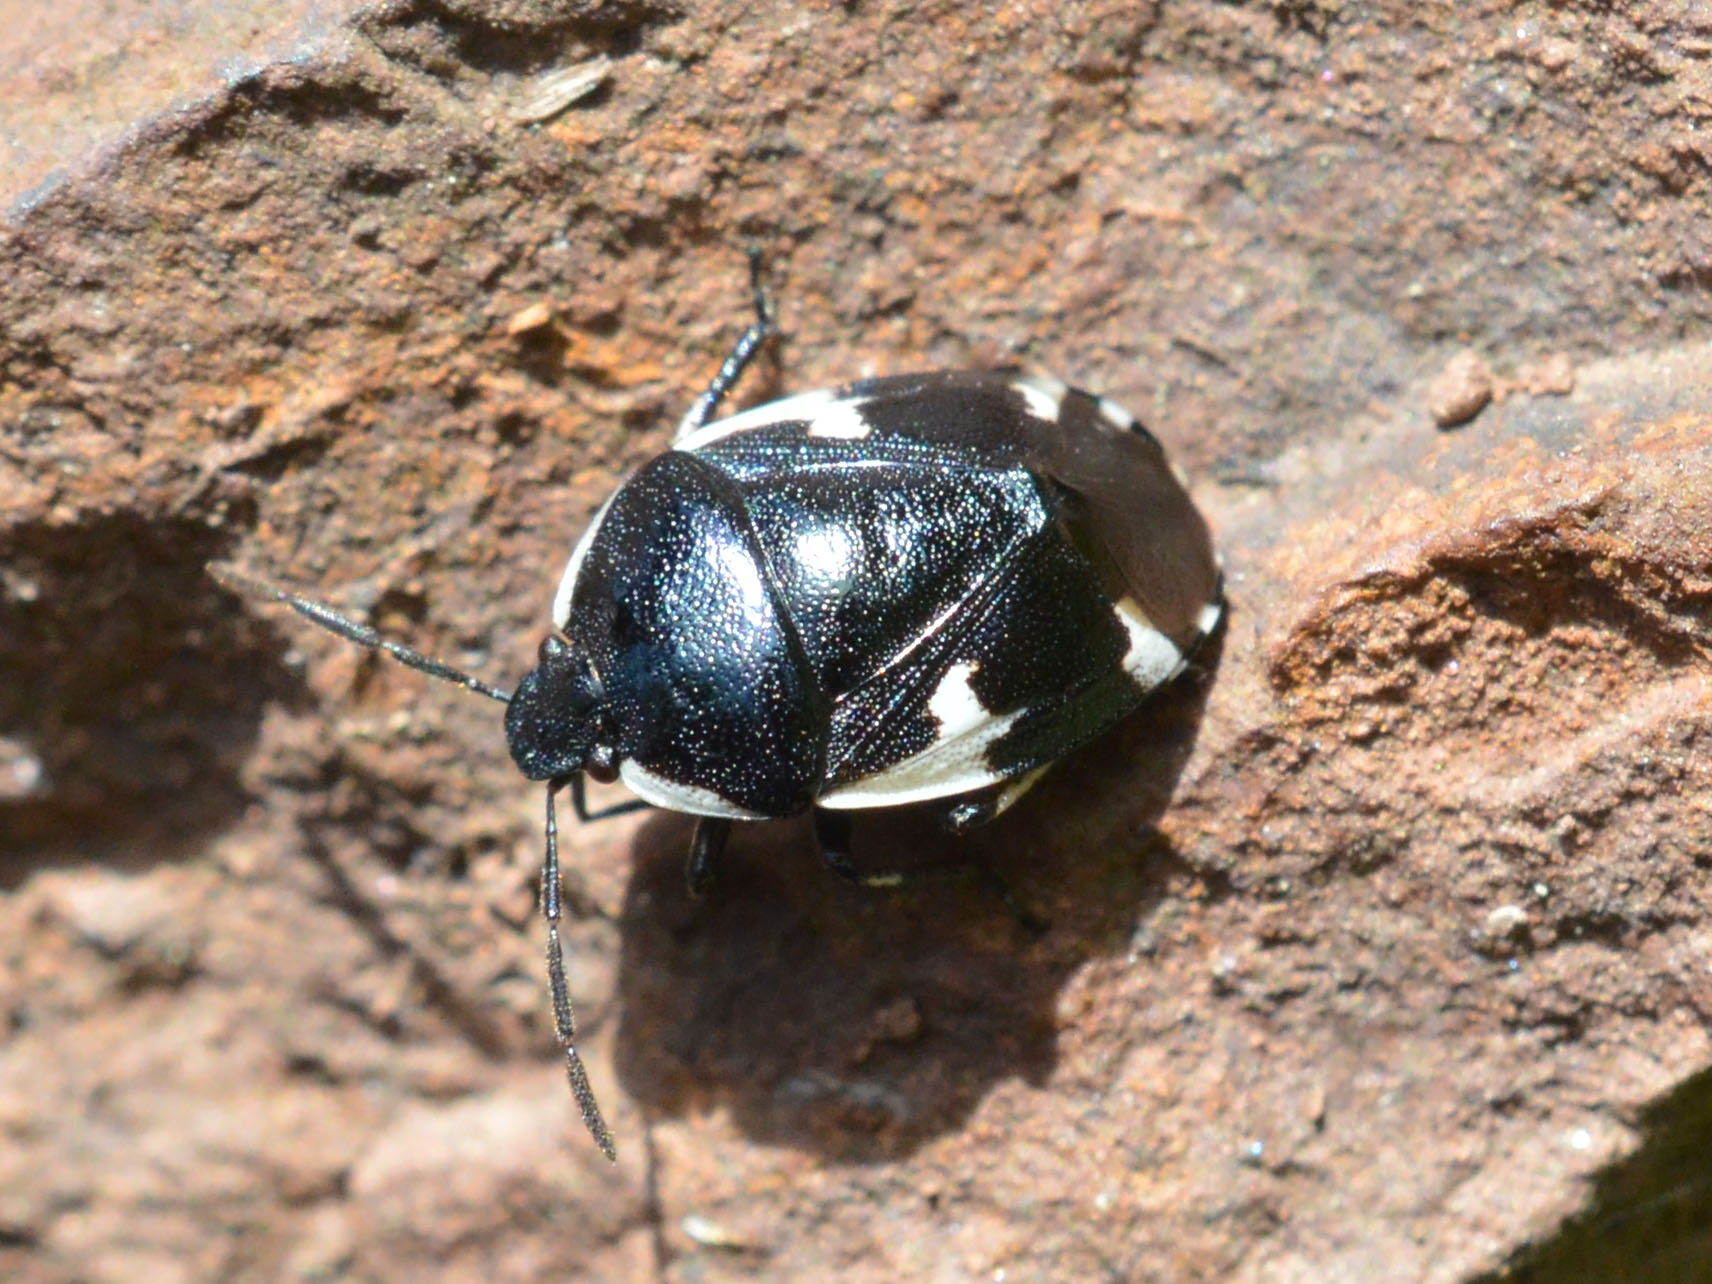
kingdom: Animalia
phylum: Arthropoda
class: Insecta
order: Hemiptera
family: Cydnidae
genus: Tritomegas
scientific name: Tritomegas sexmaculatus
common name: Rambur's pied shieldbug
